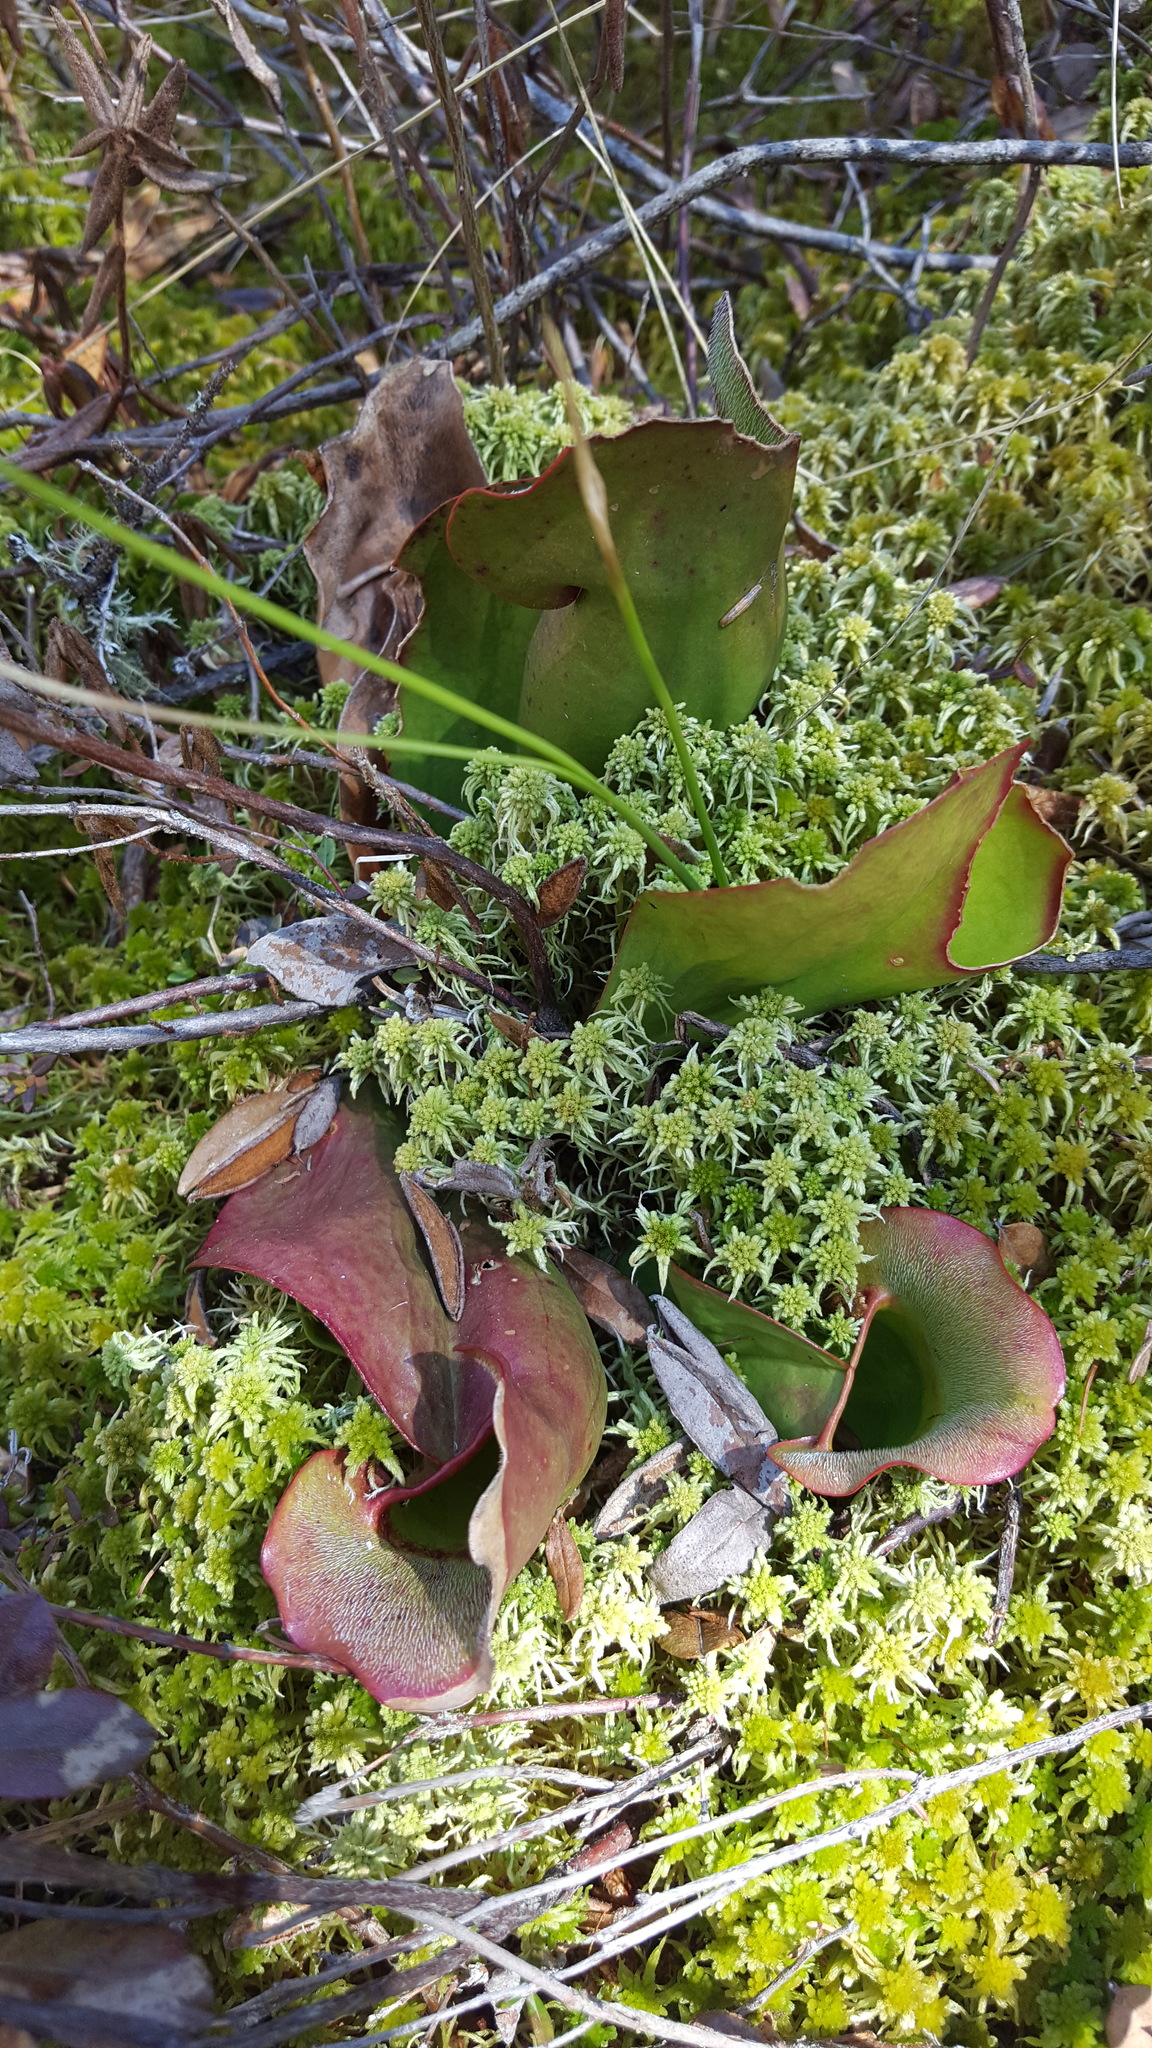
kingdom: Plantae
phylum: Tracheophyta
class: Magnoliopsida
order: Ericales
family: Sarraceniaceae
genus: Sarracenia
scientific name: Sarracenia purpurea
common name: Pitcherplant
